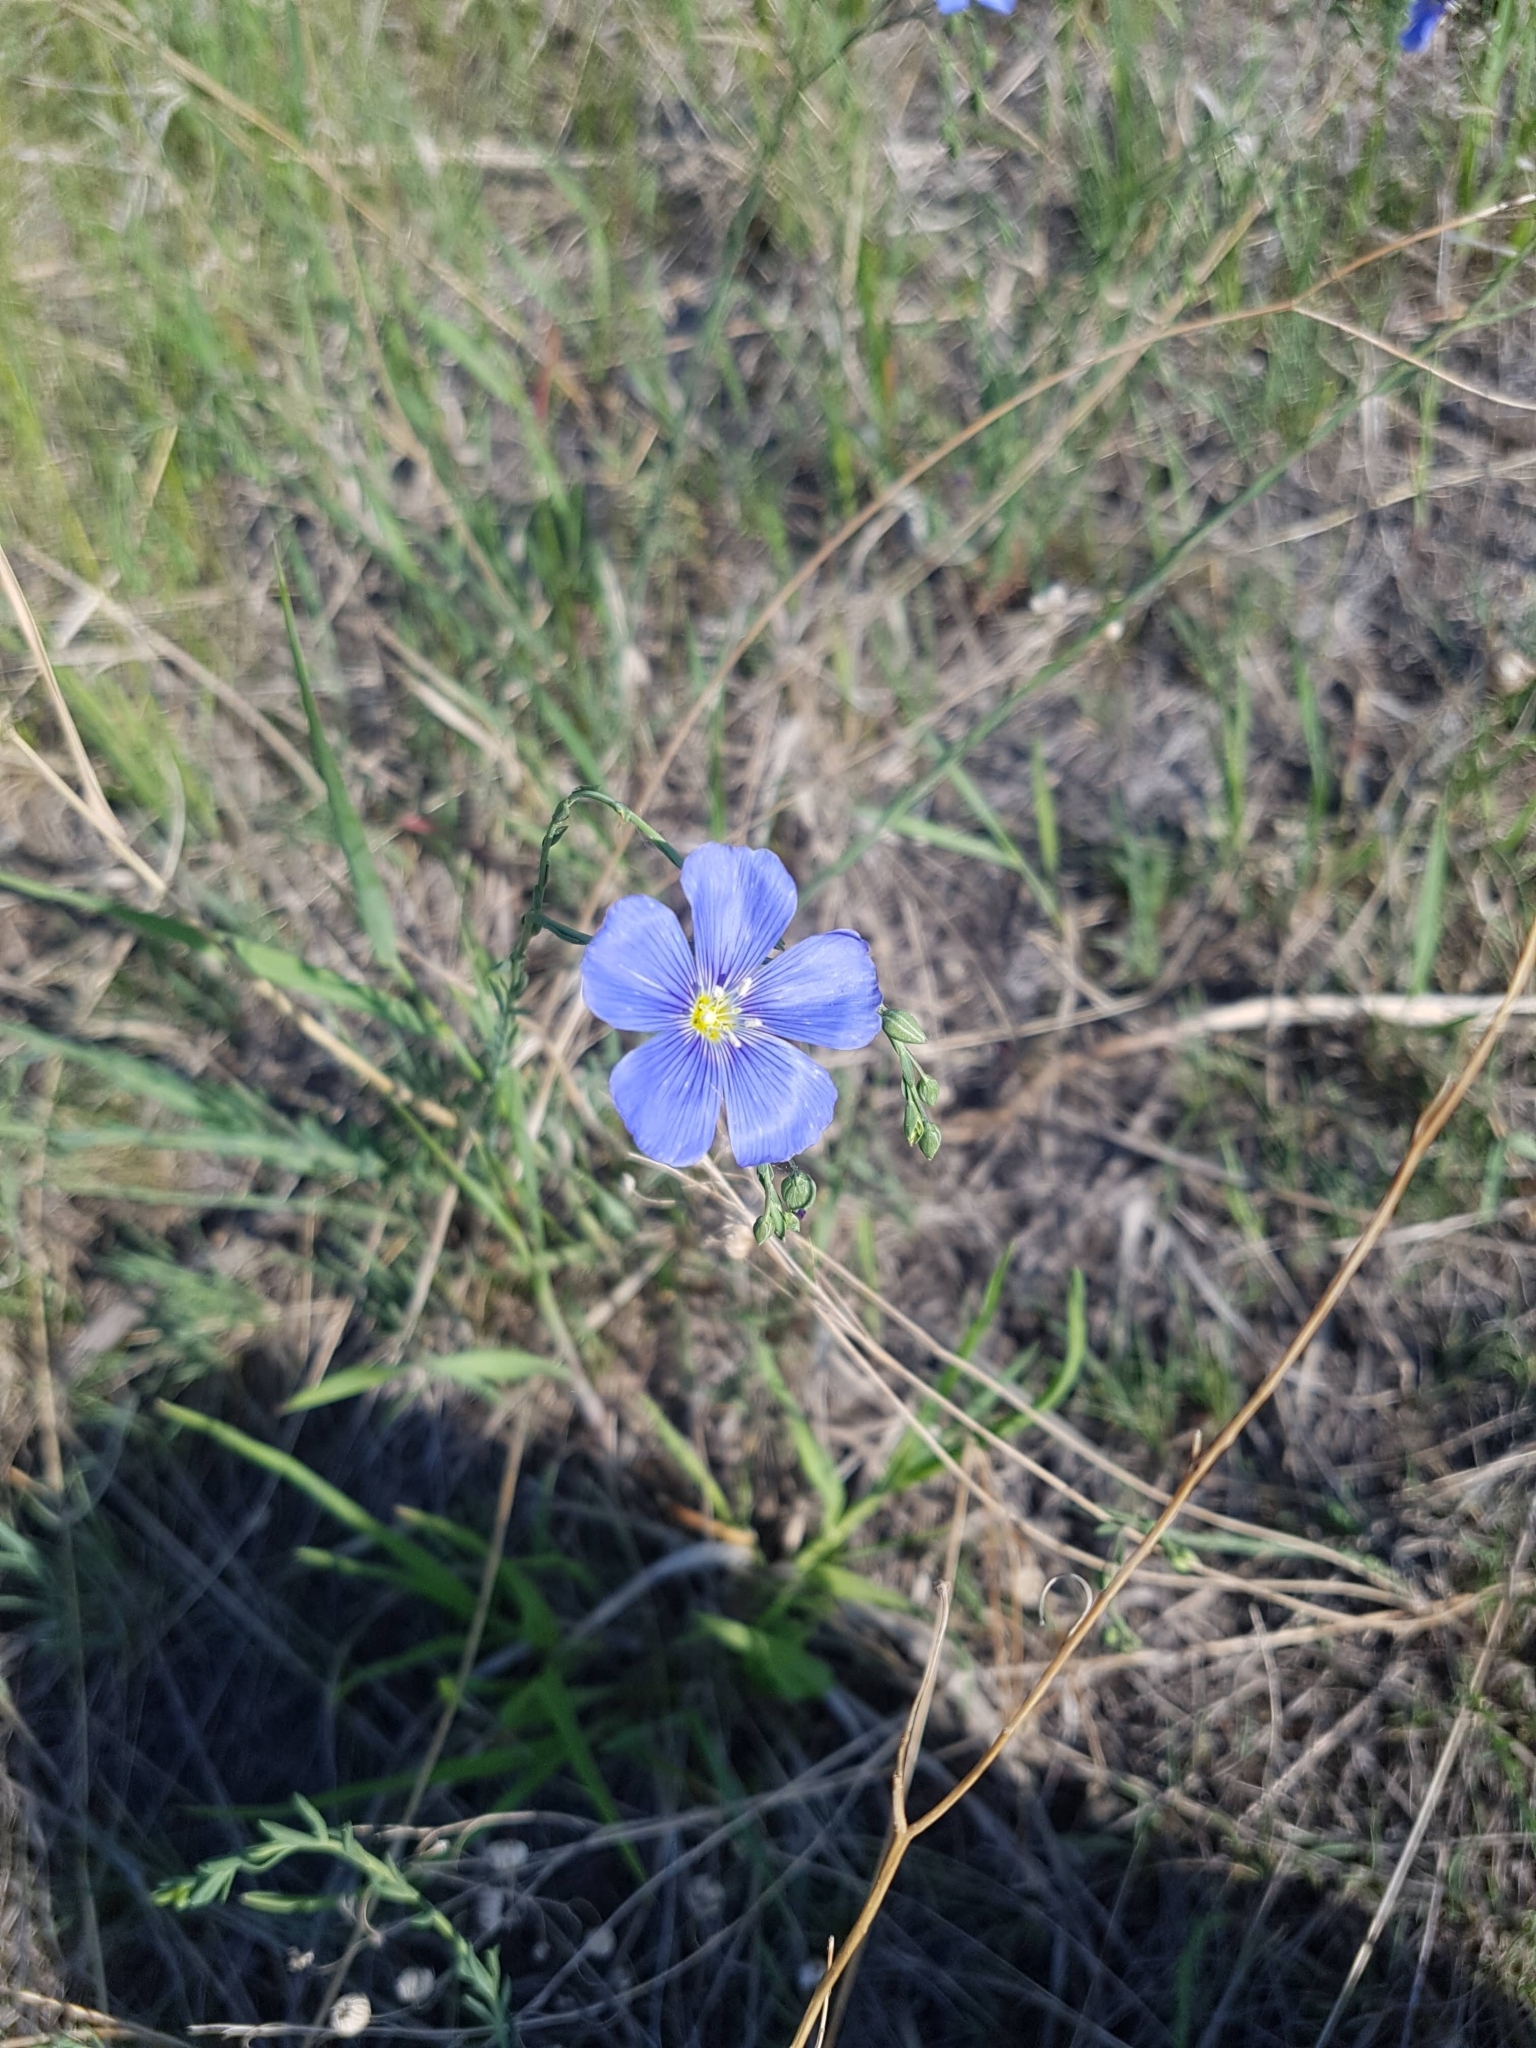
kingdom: Plantae
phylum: Tracheophyta
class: Magnoliopsida
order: Malpighiales
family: Linaceae
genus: Linum
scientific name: Linum lewisii
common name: Prairie flax
